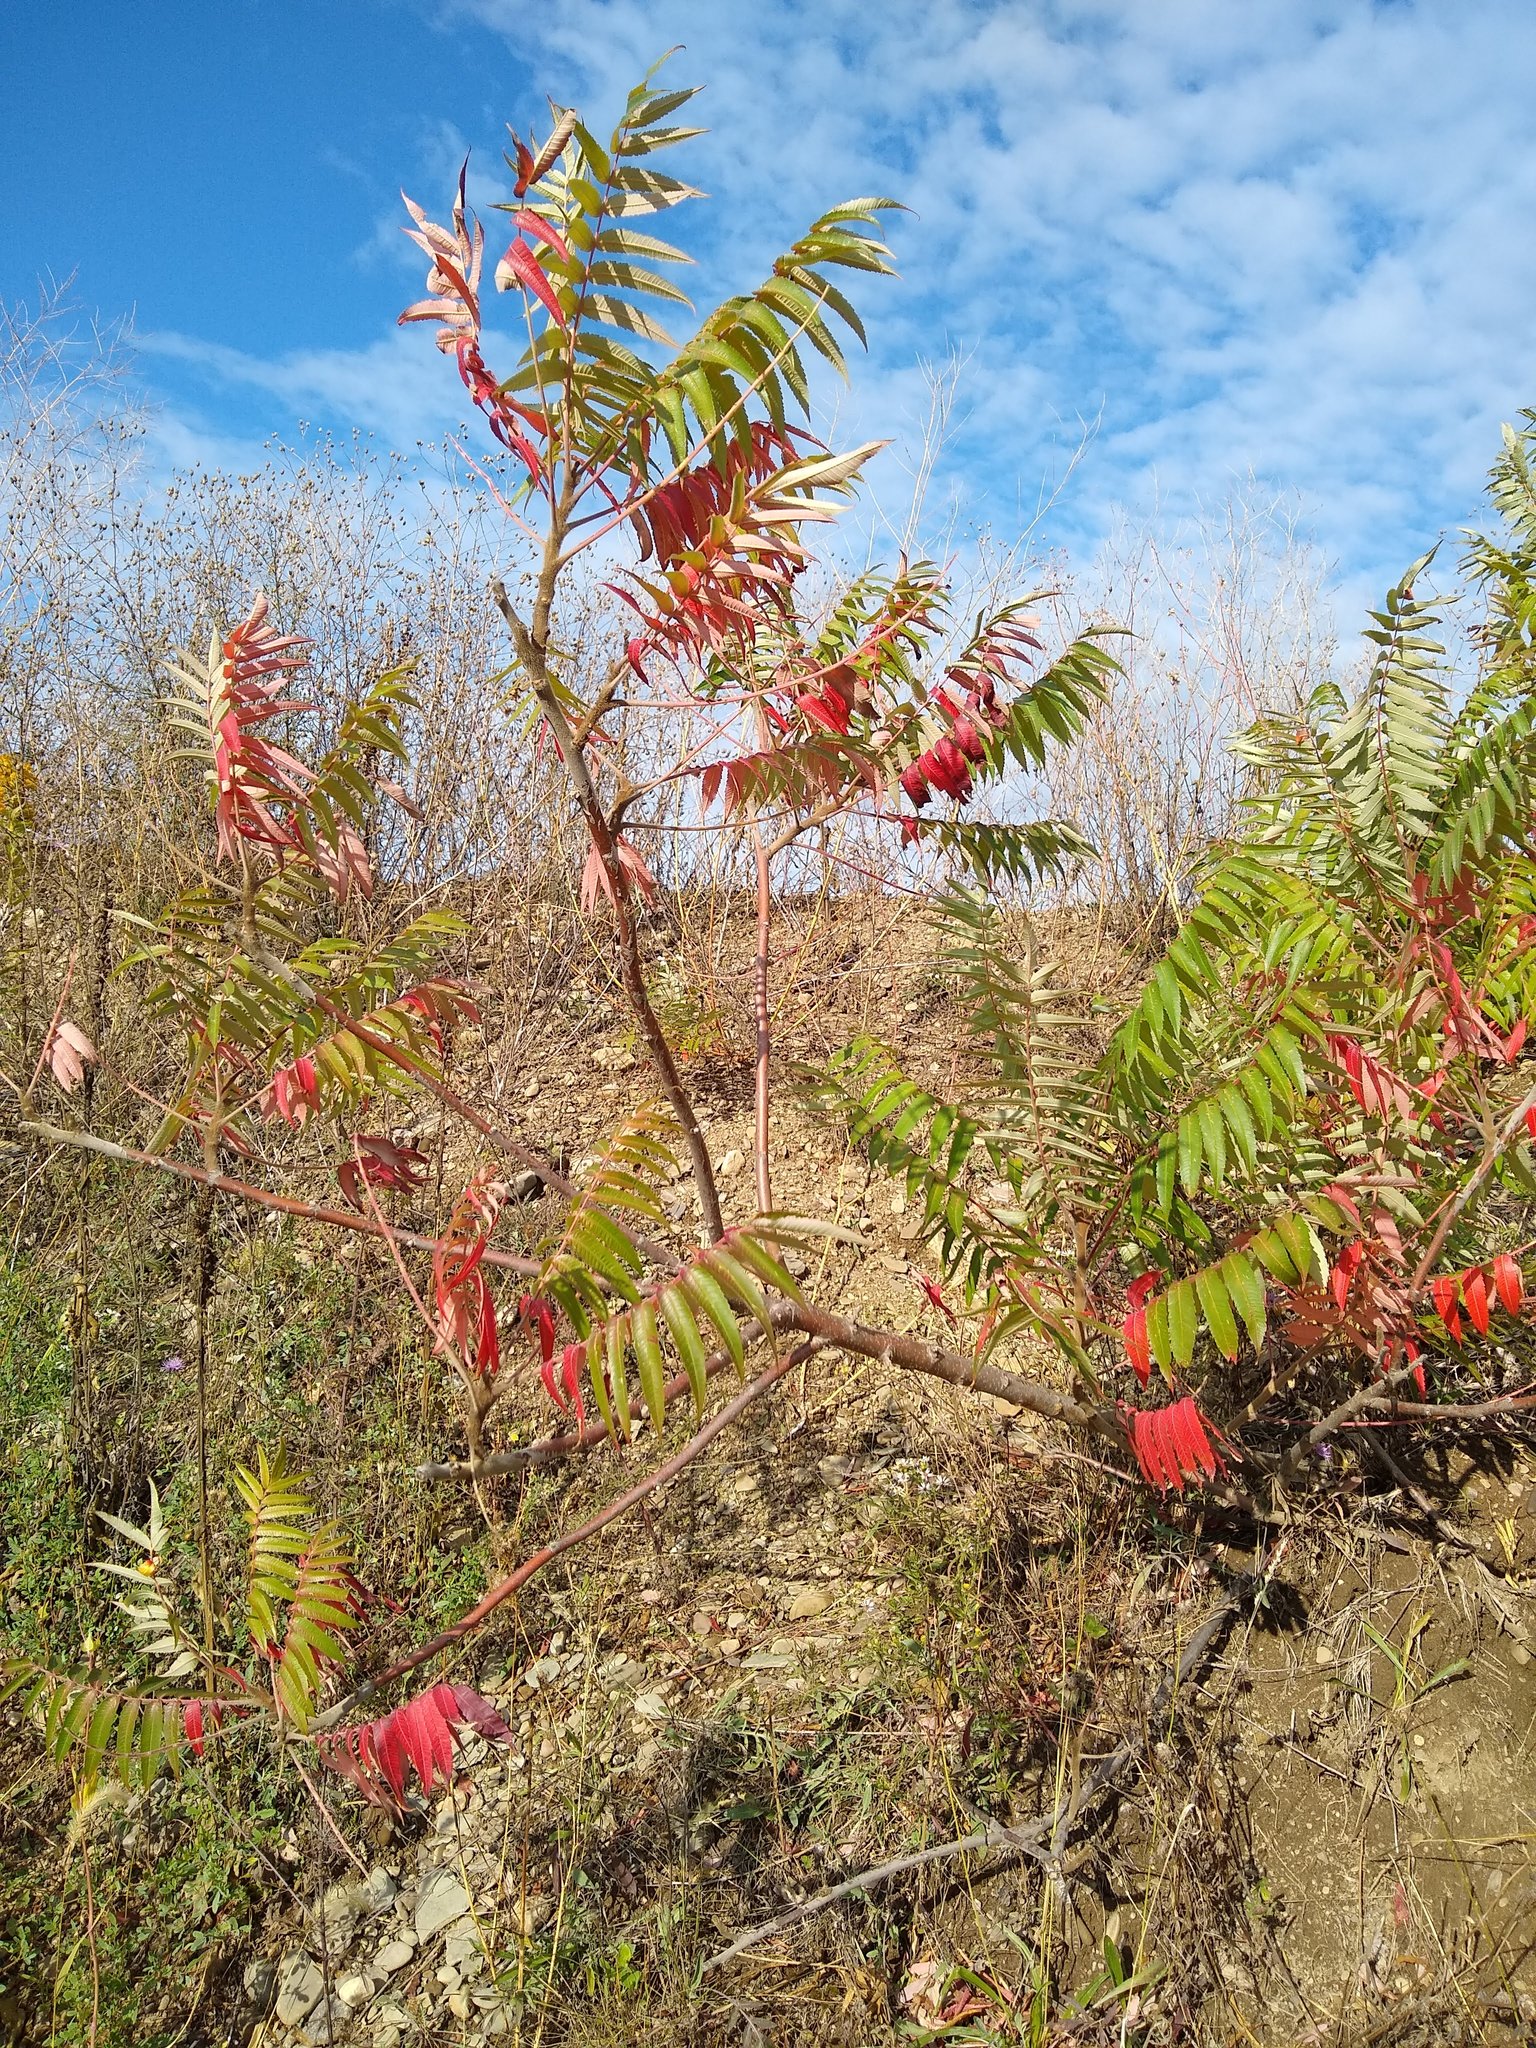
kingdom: Plantae
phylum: Tracheophyta
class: Magnoliopsida
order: Sapindales
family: Anacardiaceae
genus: Rhus
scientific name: Rhus typhina
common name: Staghorn sumac
